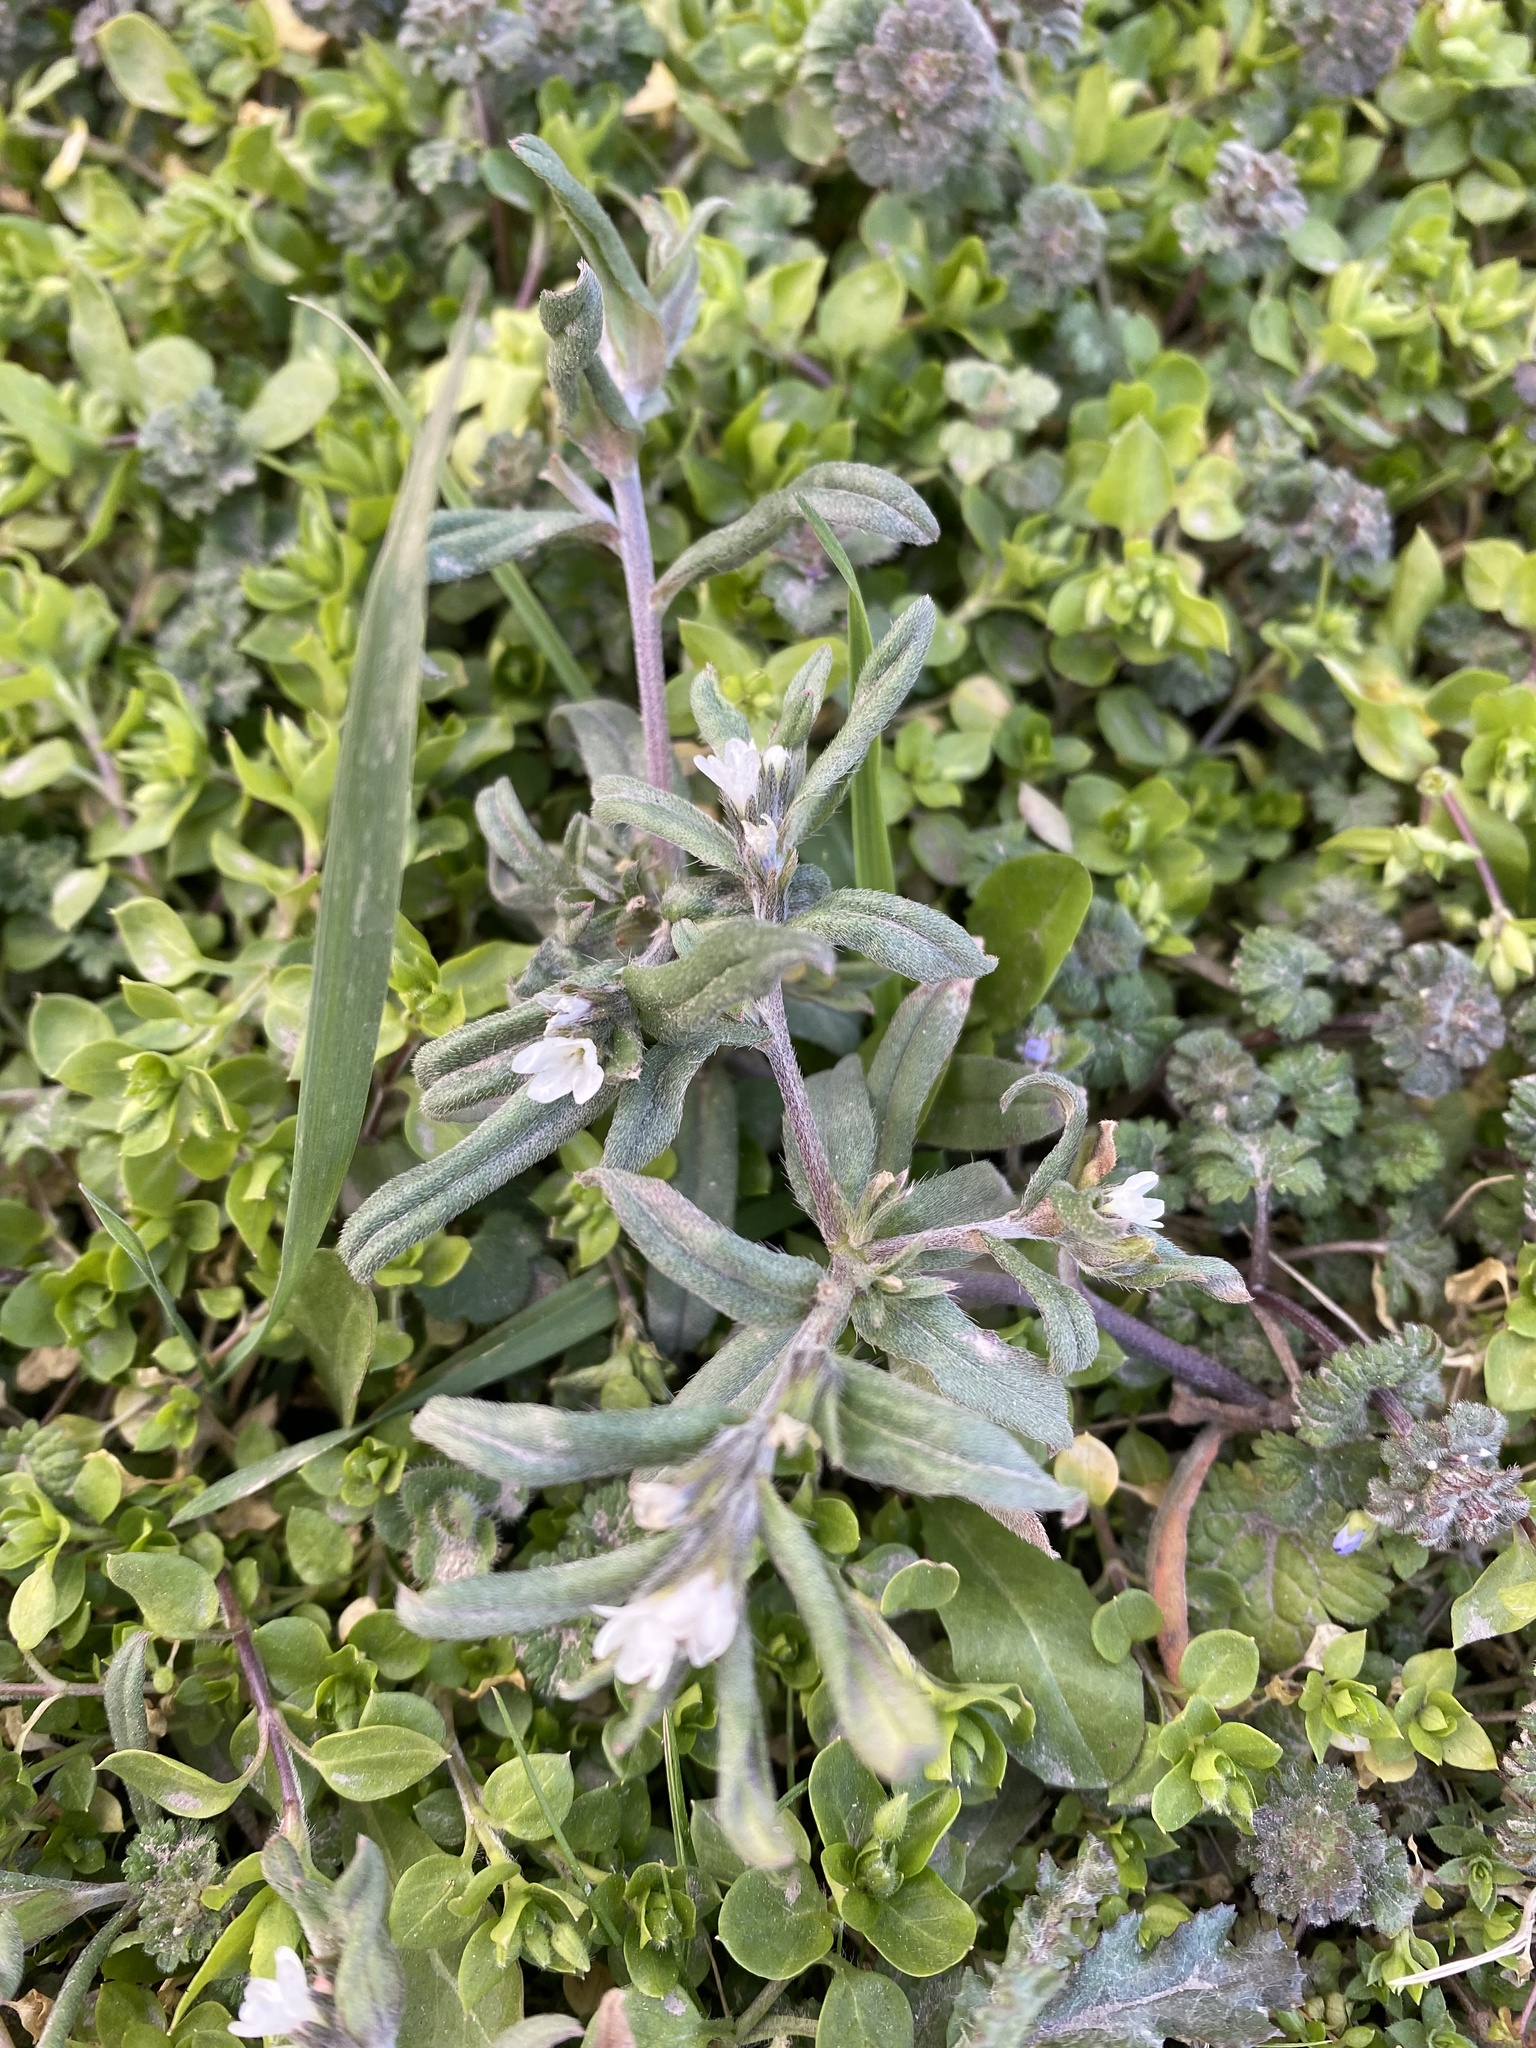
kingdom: Plantae
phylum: Tracheophyta
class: Magnoliopsida
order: Boraginales
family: Boraginaceae
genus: Buglossoides
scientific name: Buglossoides arvensis
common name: Corn gromwell
